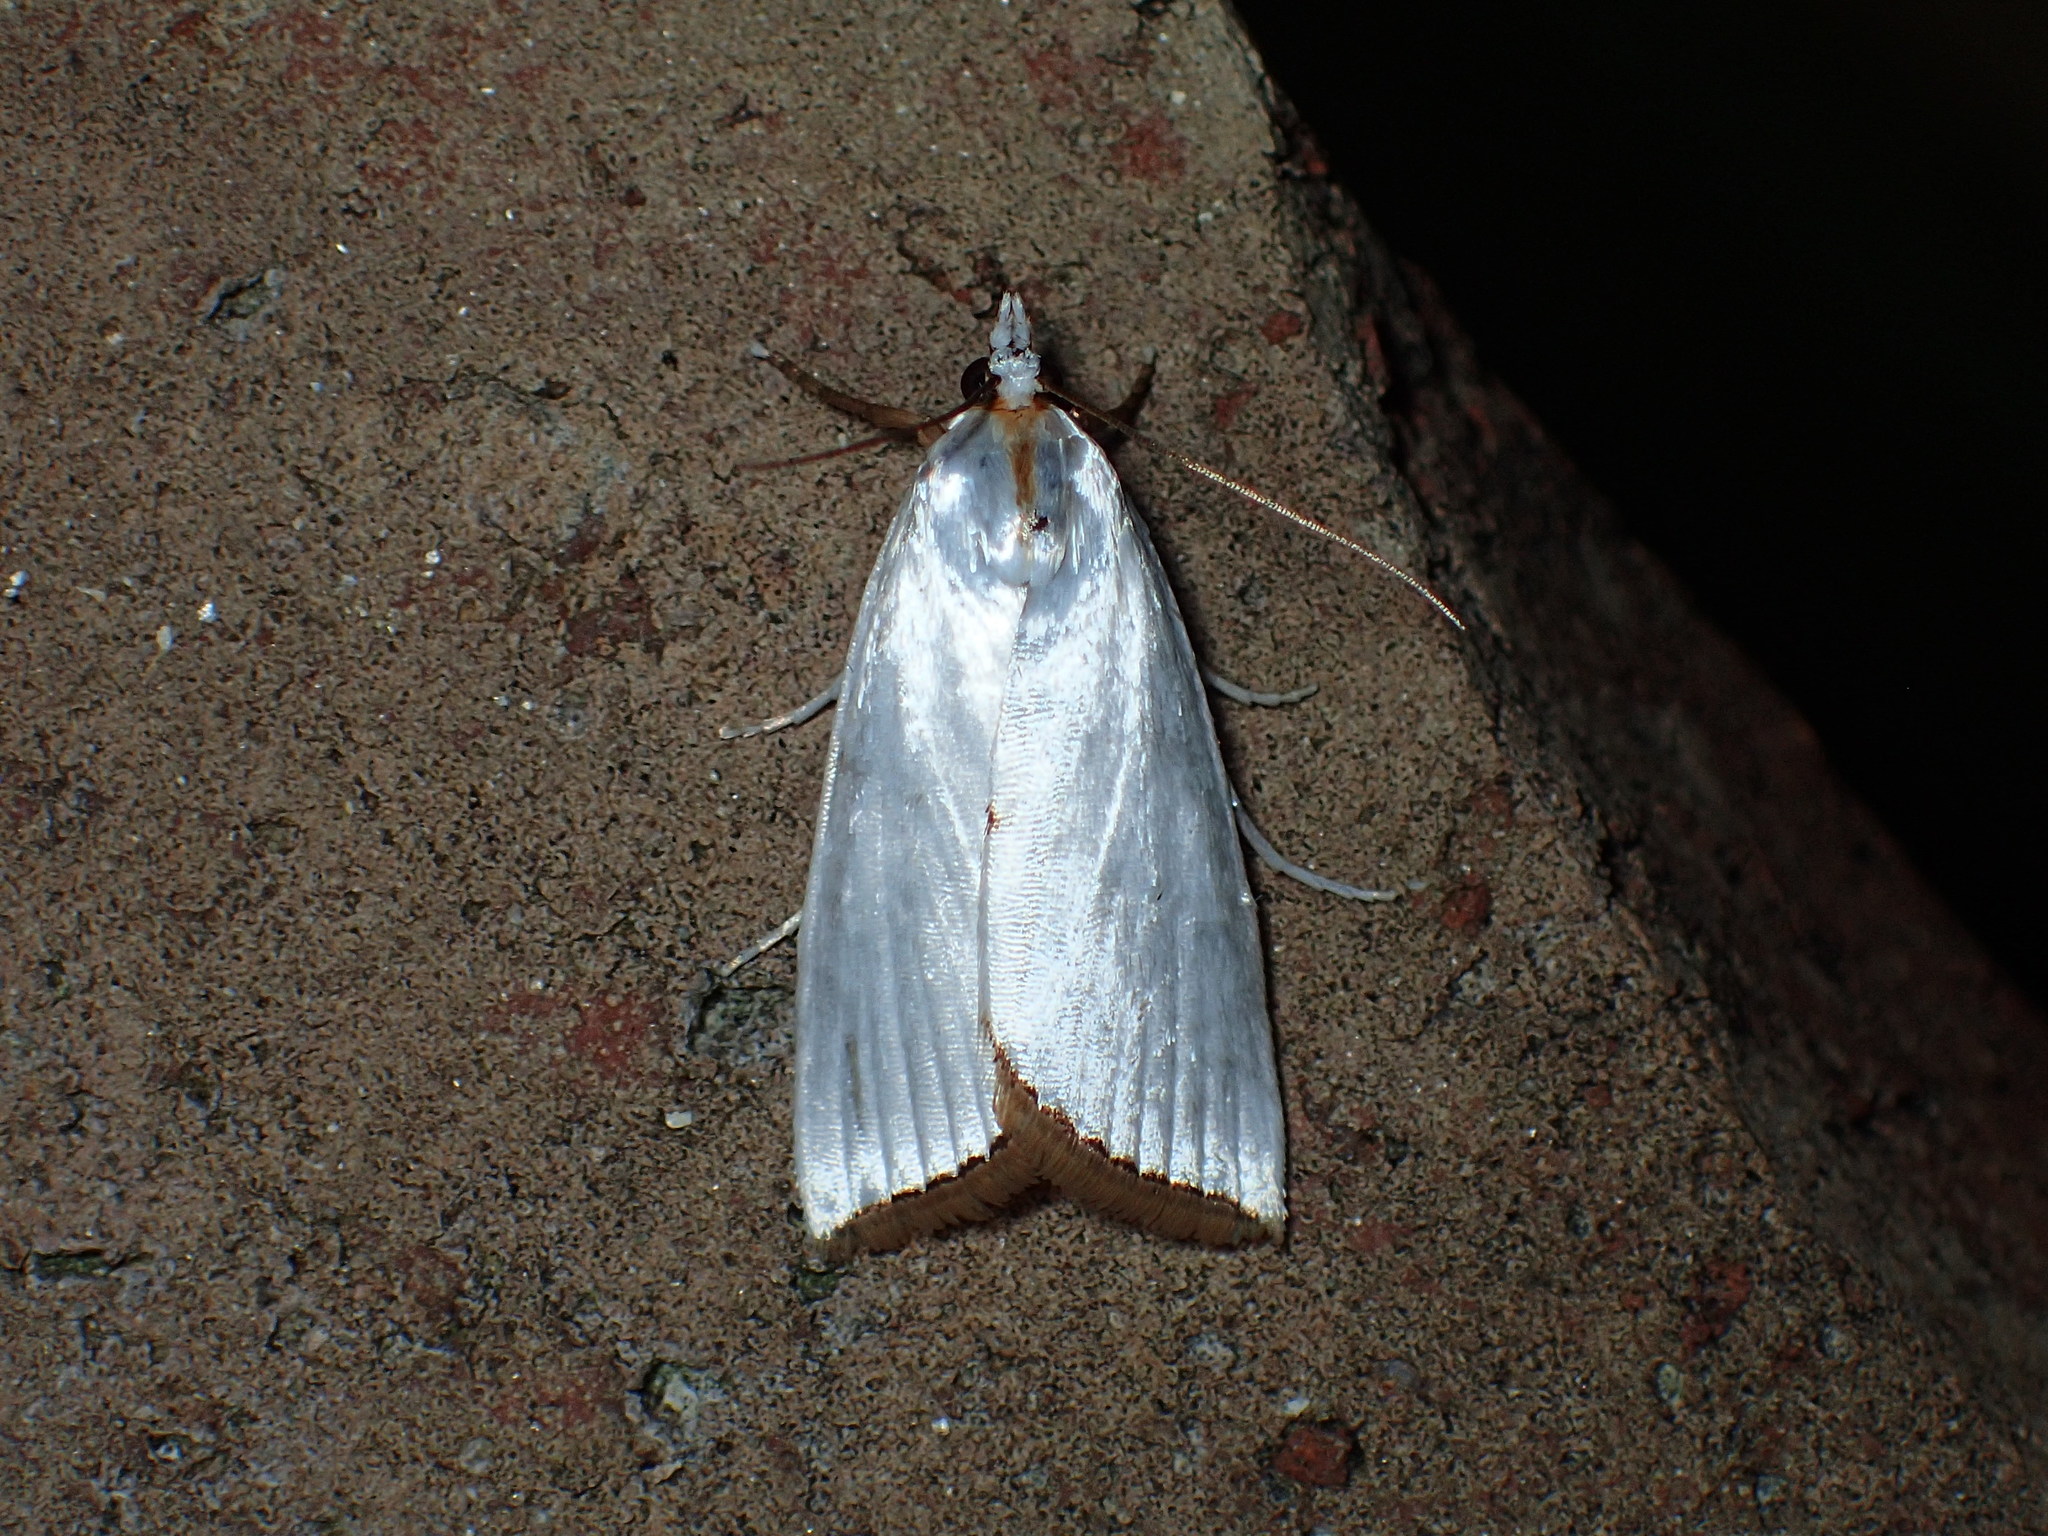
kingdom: Animalia
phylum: Arthropoda
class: Insecta
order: Lepidoptera
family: Crambidae
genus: Argyria
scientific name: Argyria nivalis
